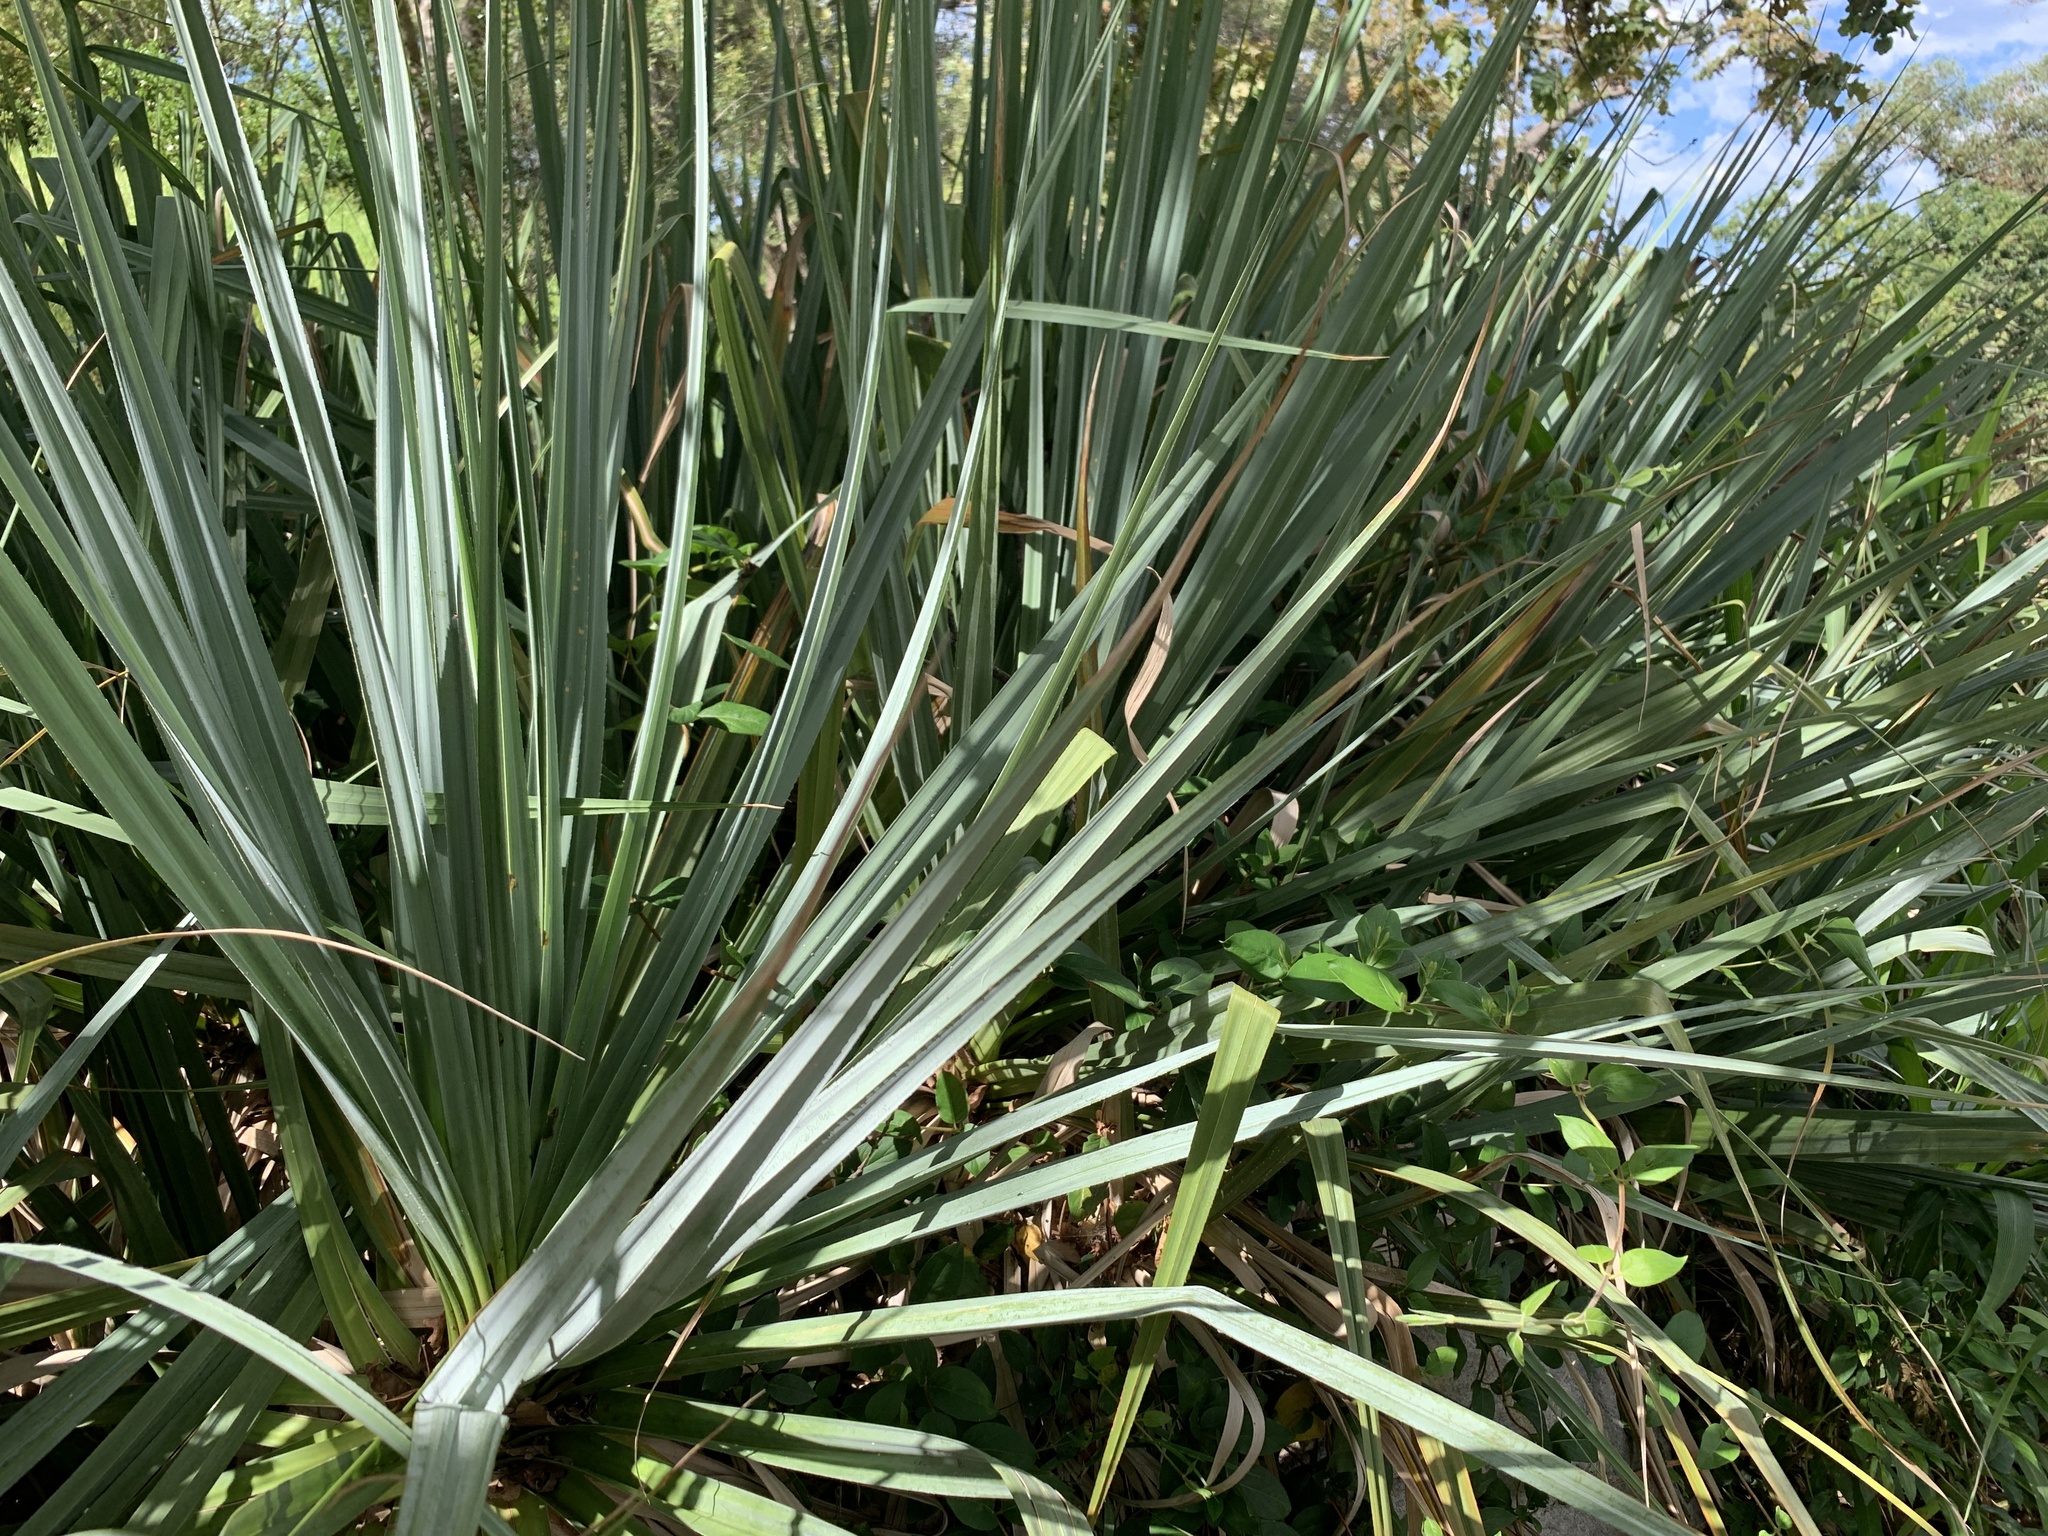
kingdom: Plantae
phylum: Tracheophyta
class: Liliopsida
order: Poales
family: Thurniaceae
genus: Prionium
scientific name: Prionium serratum
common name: Palmiet
